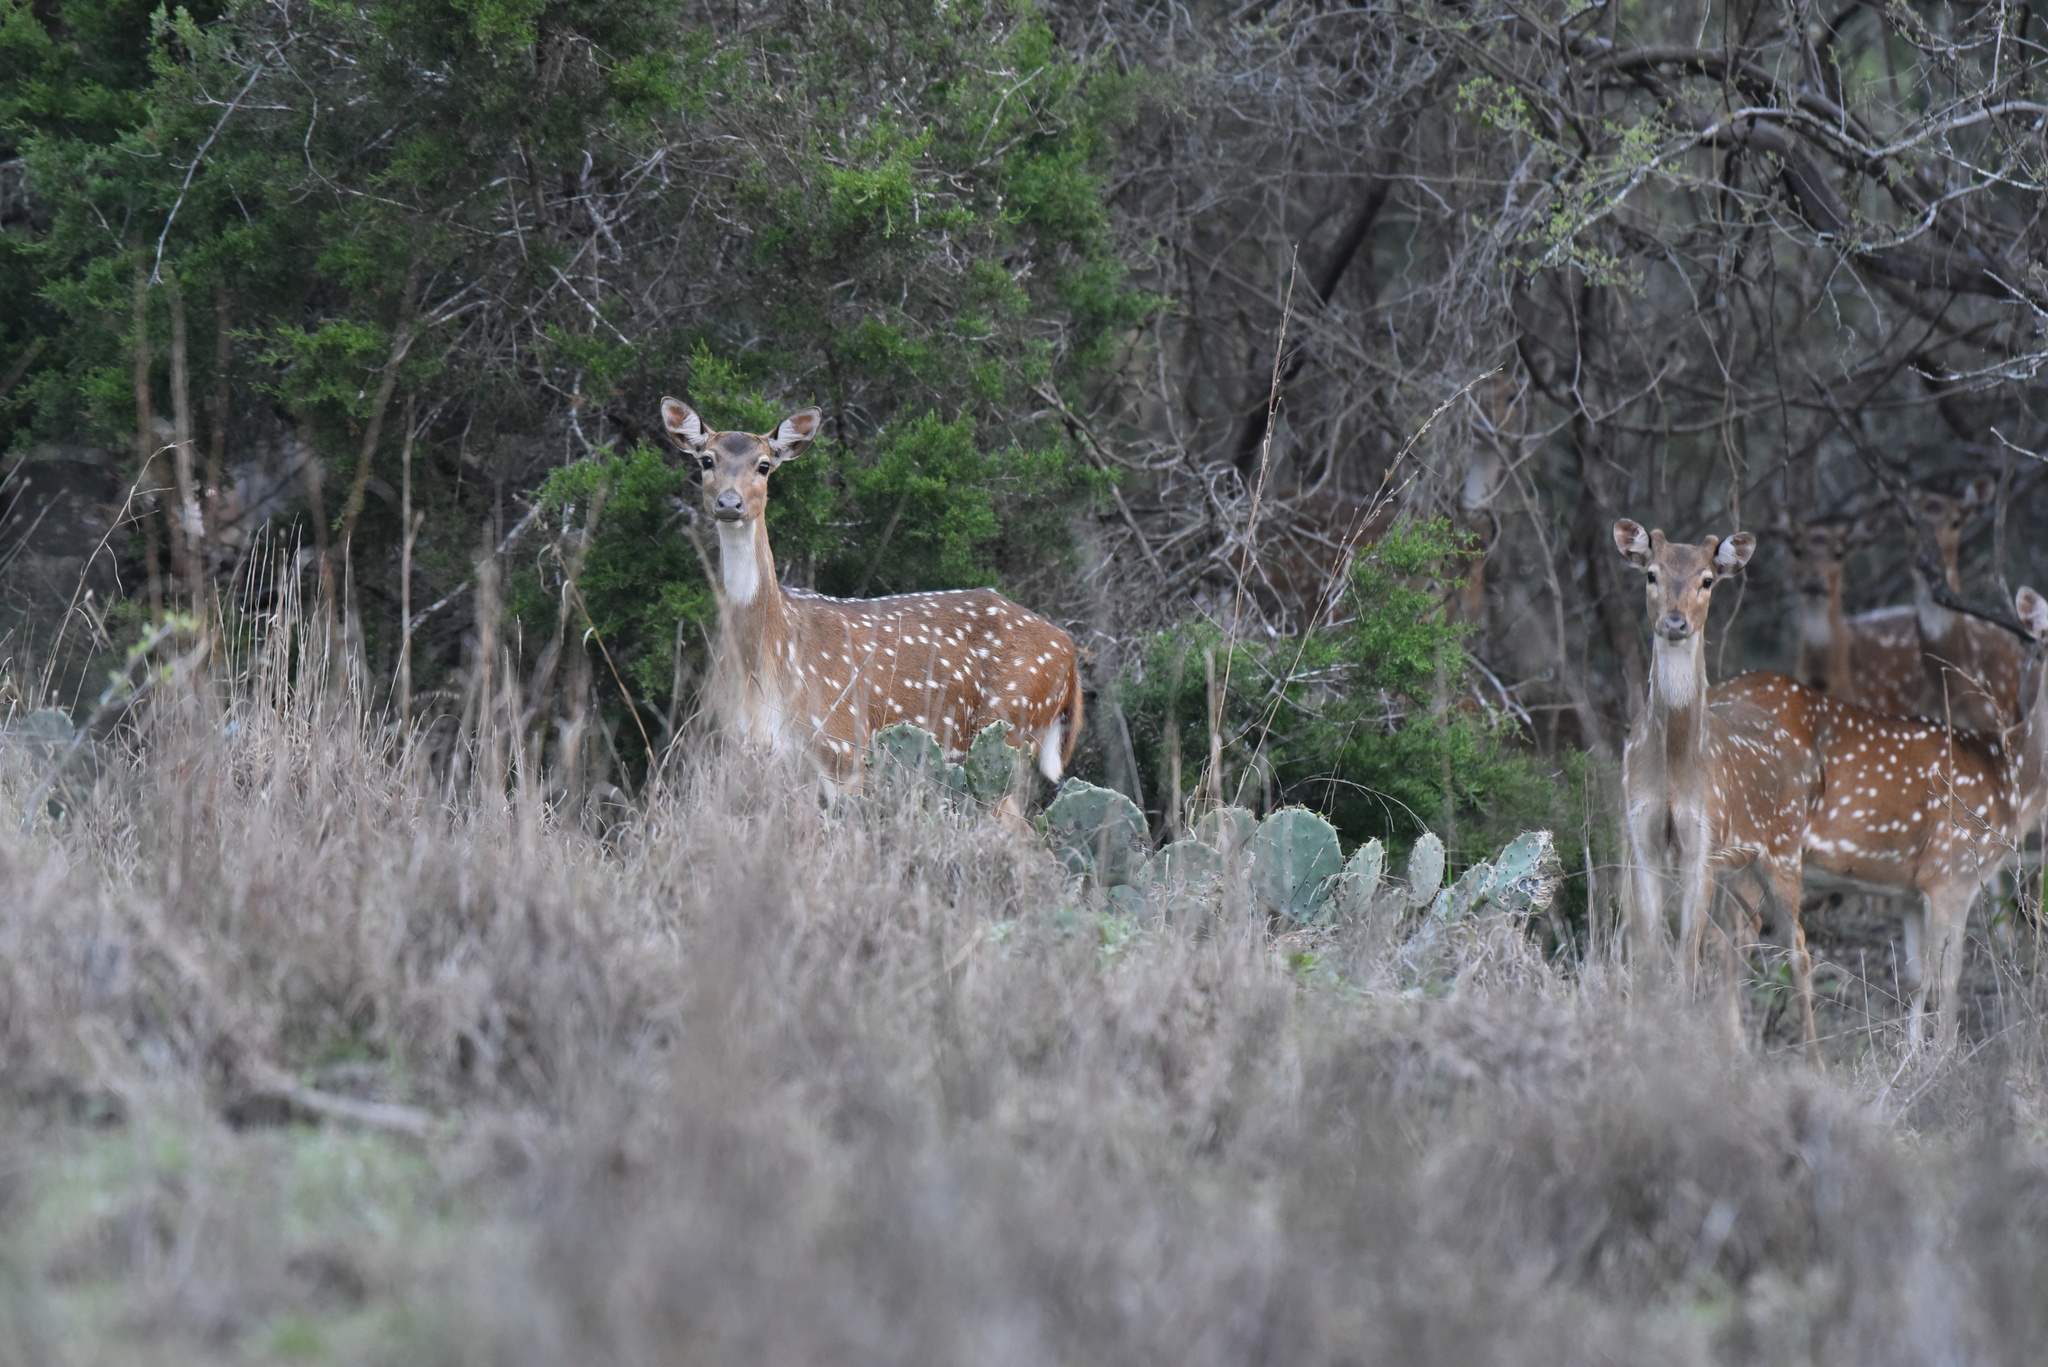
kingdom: Animalia
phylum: Chordata
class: Mammalia
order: Artiodactyla
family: Cervidae
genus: Axis
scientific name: Axis axis
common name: Chital
